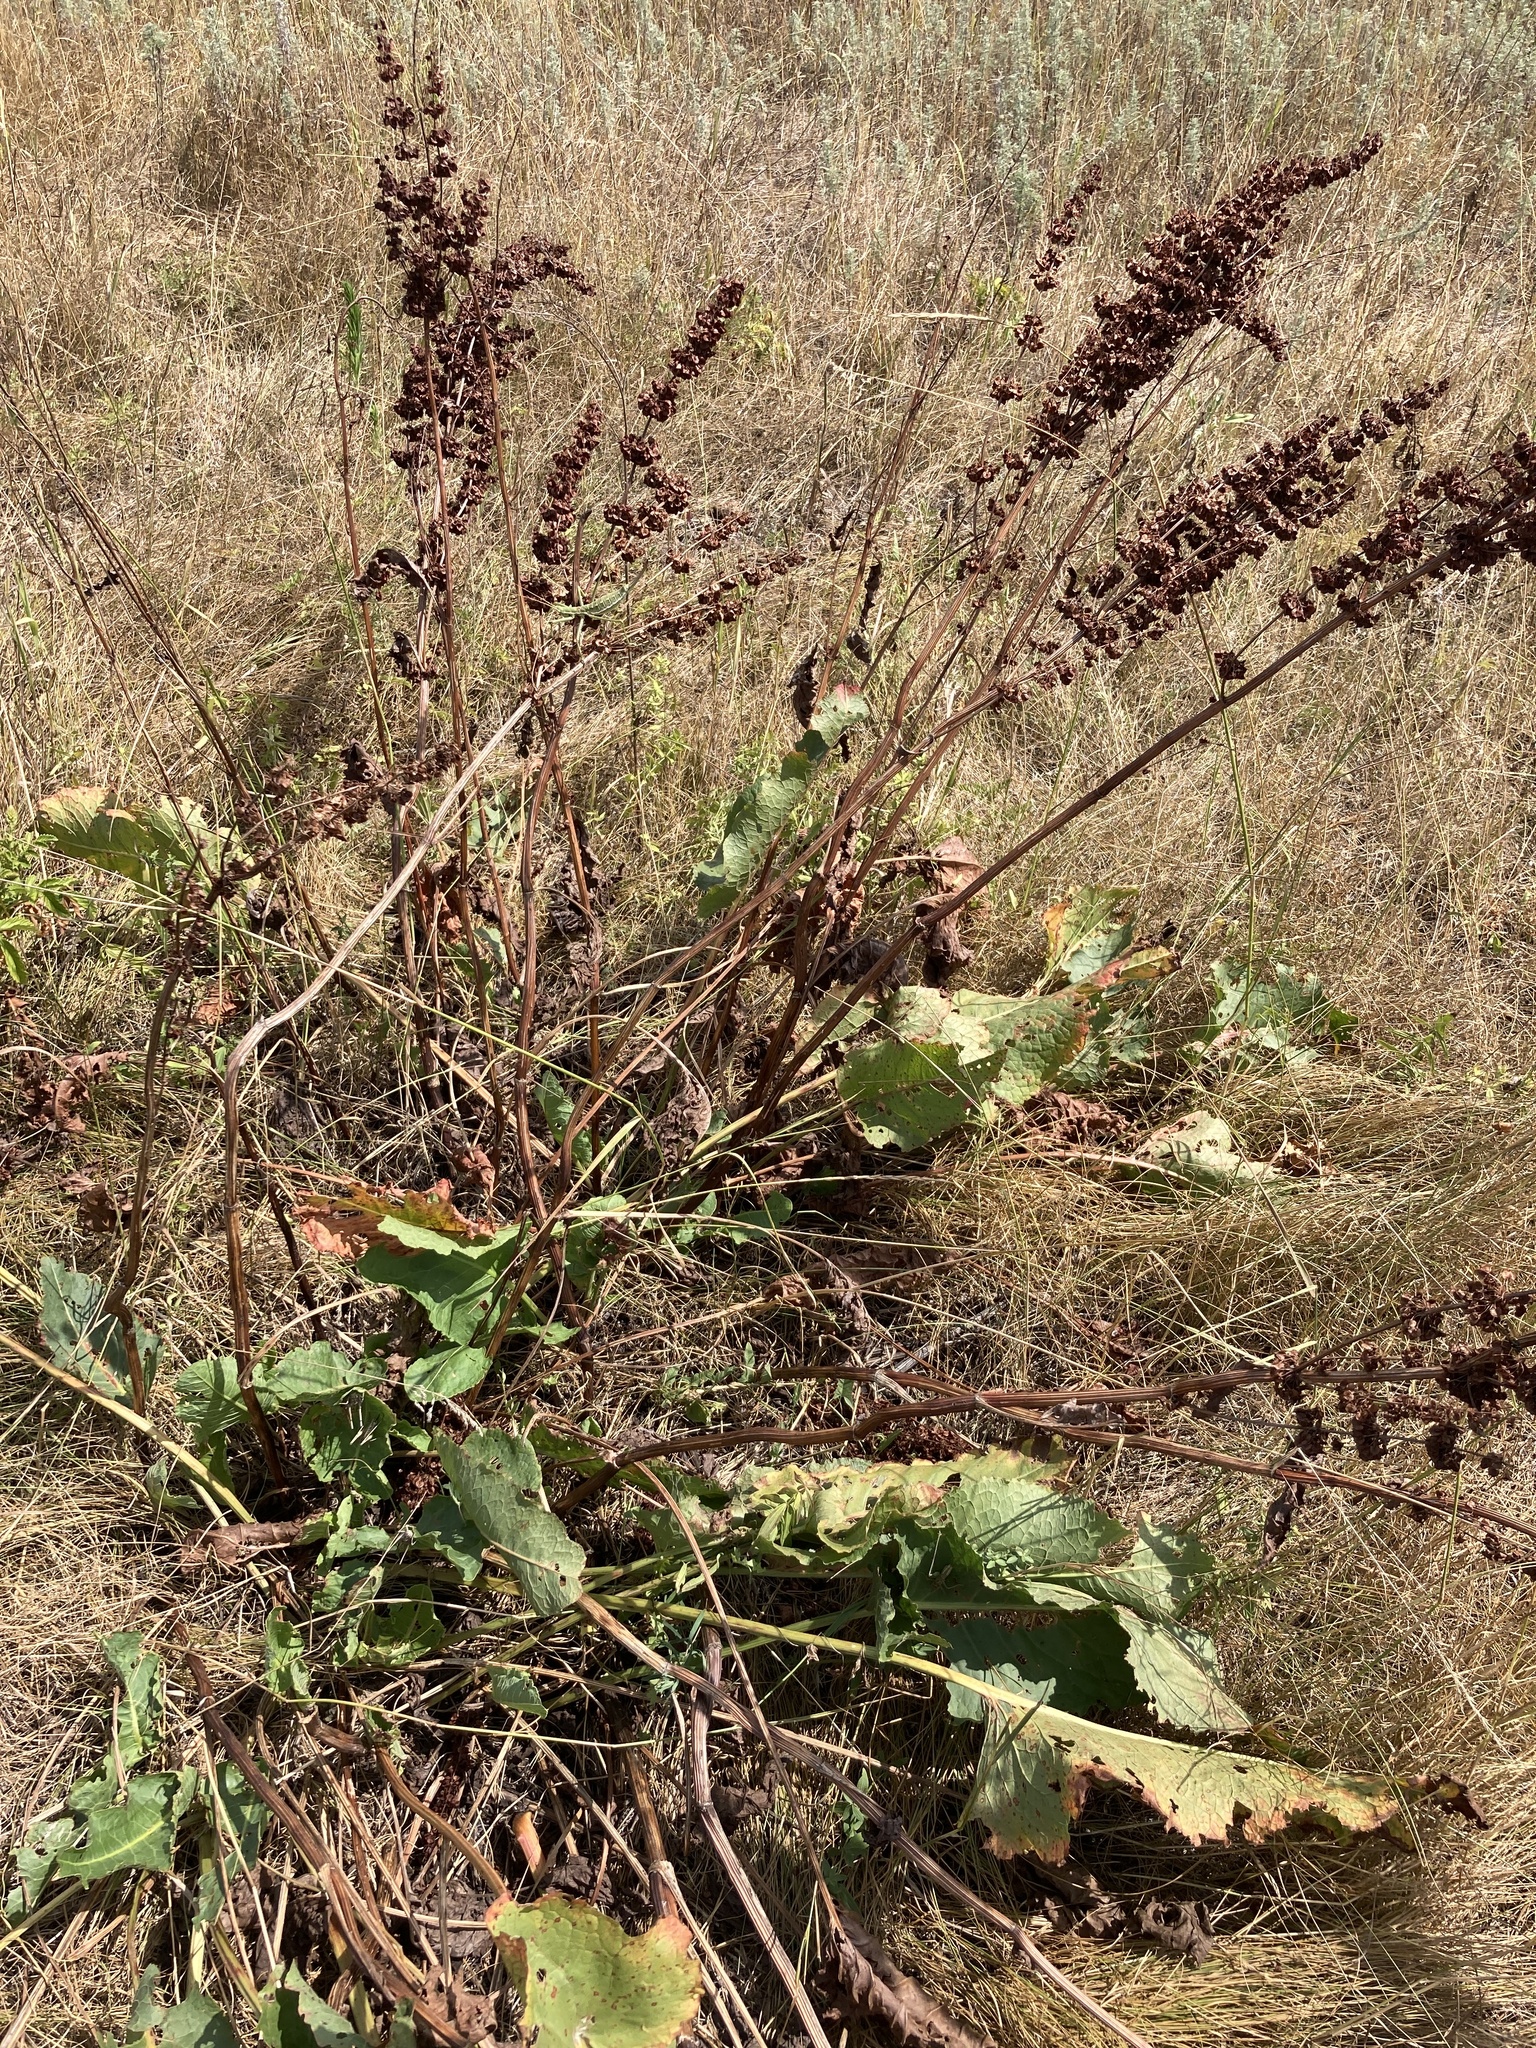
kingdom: Plantae
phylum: Tracheophyta
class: Magnoliopsida
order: Caryophyllales
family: Polygonaceae
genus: Rumex
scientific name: Rumex confertus
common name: Russian dock
